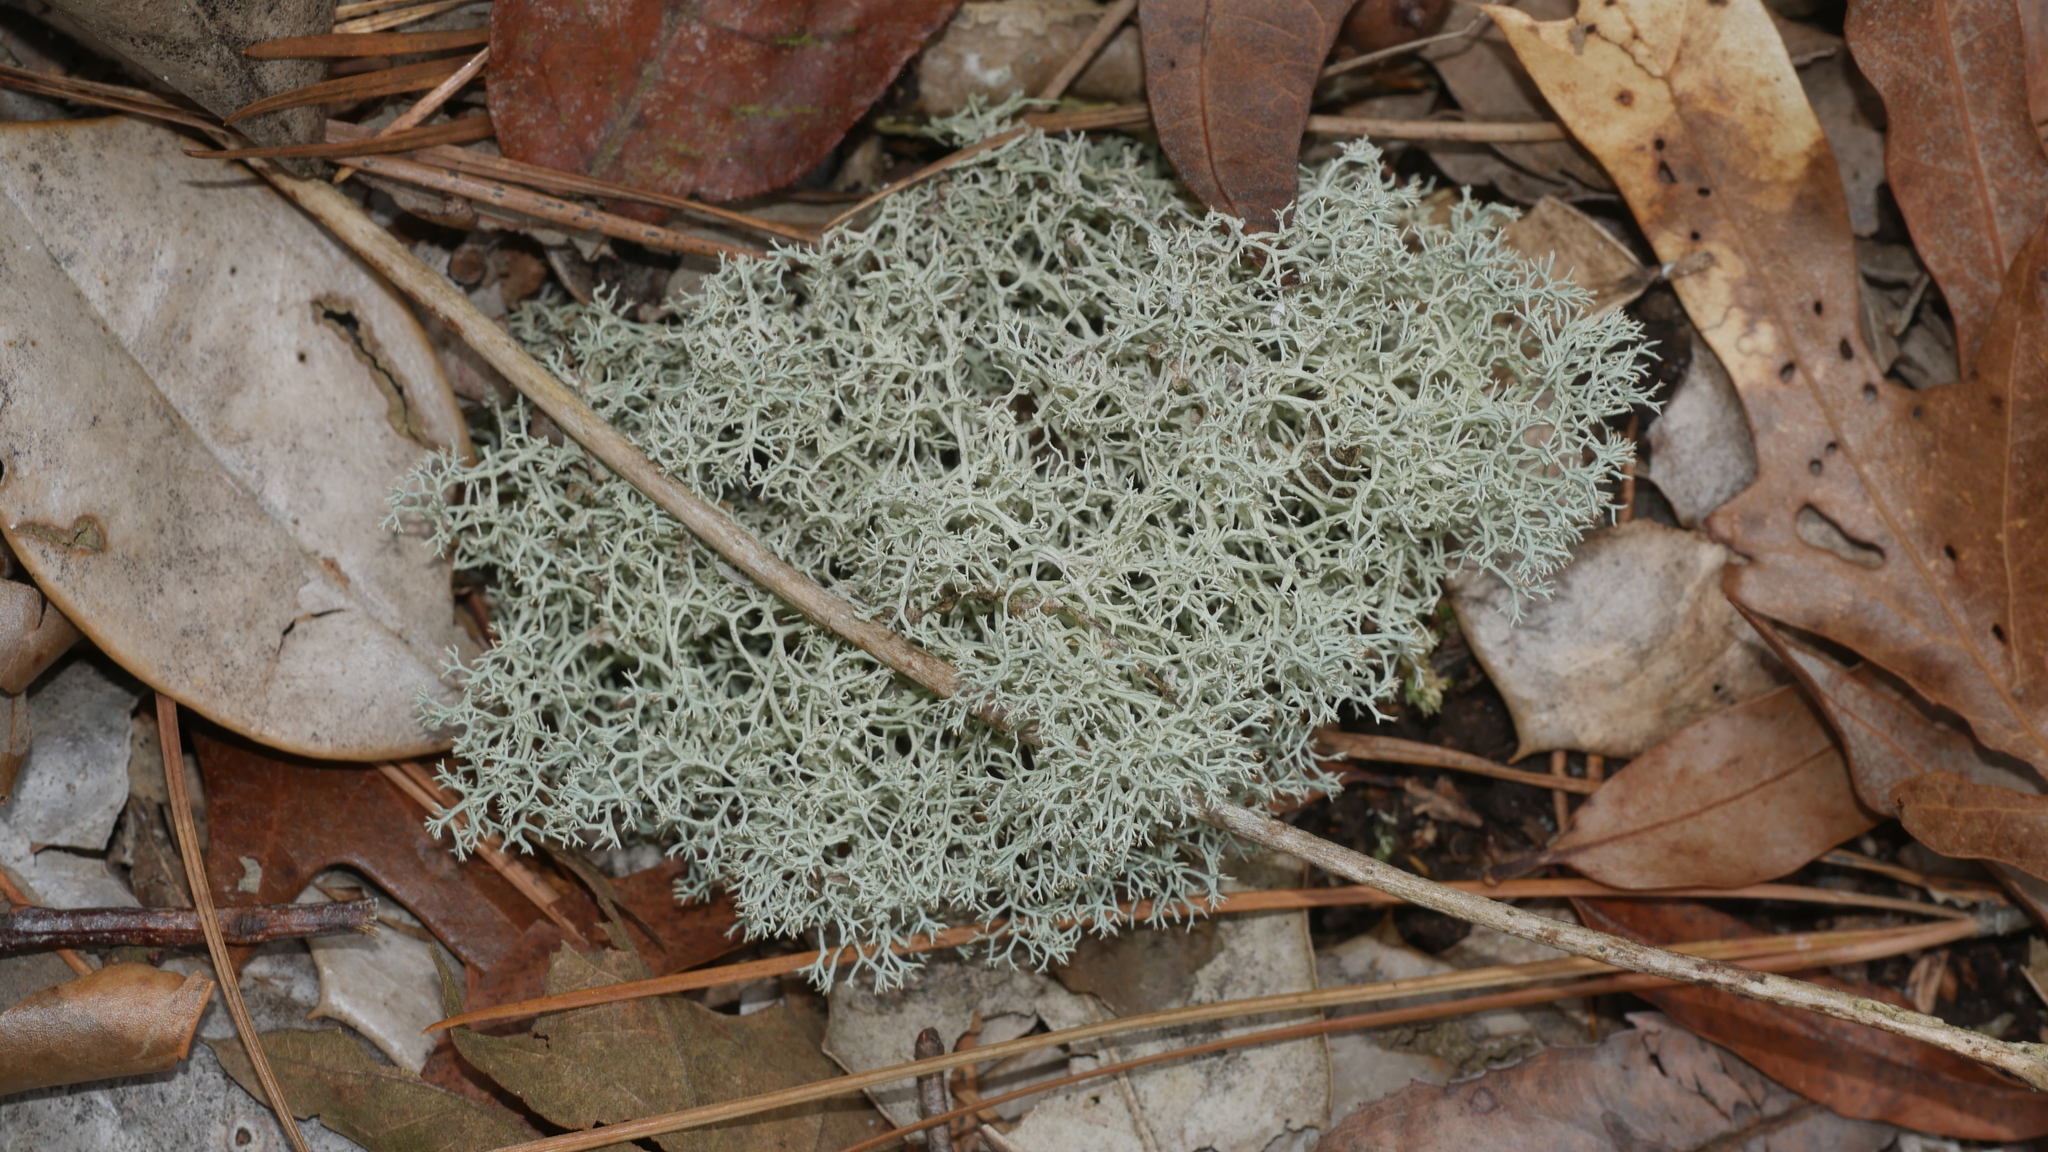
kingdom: Fungi
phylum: Ascomycota
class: Lecanoromycetes
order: Lecanorales
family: Cladoniaceae
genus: Cladonia
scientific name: Cladonia subtenuis
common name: Dixie reindeer lichen
